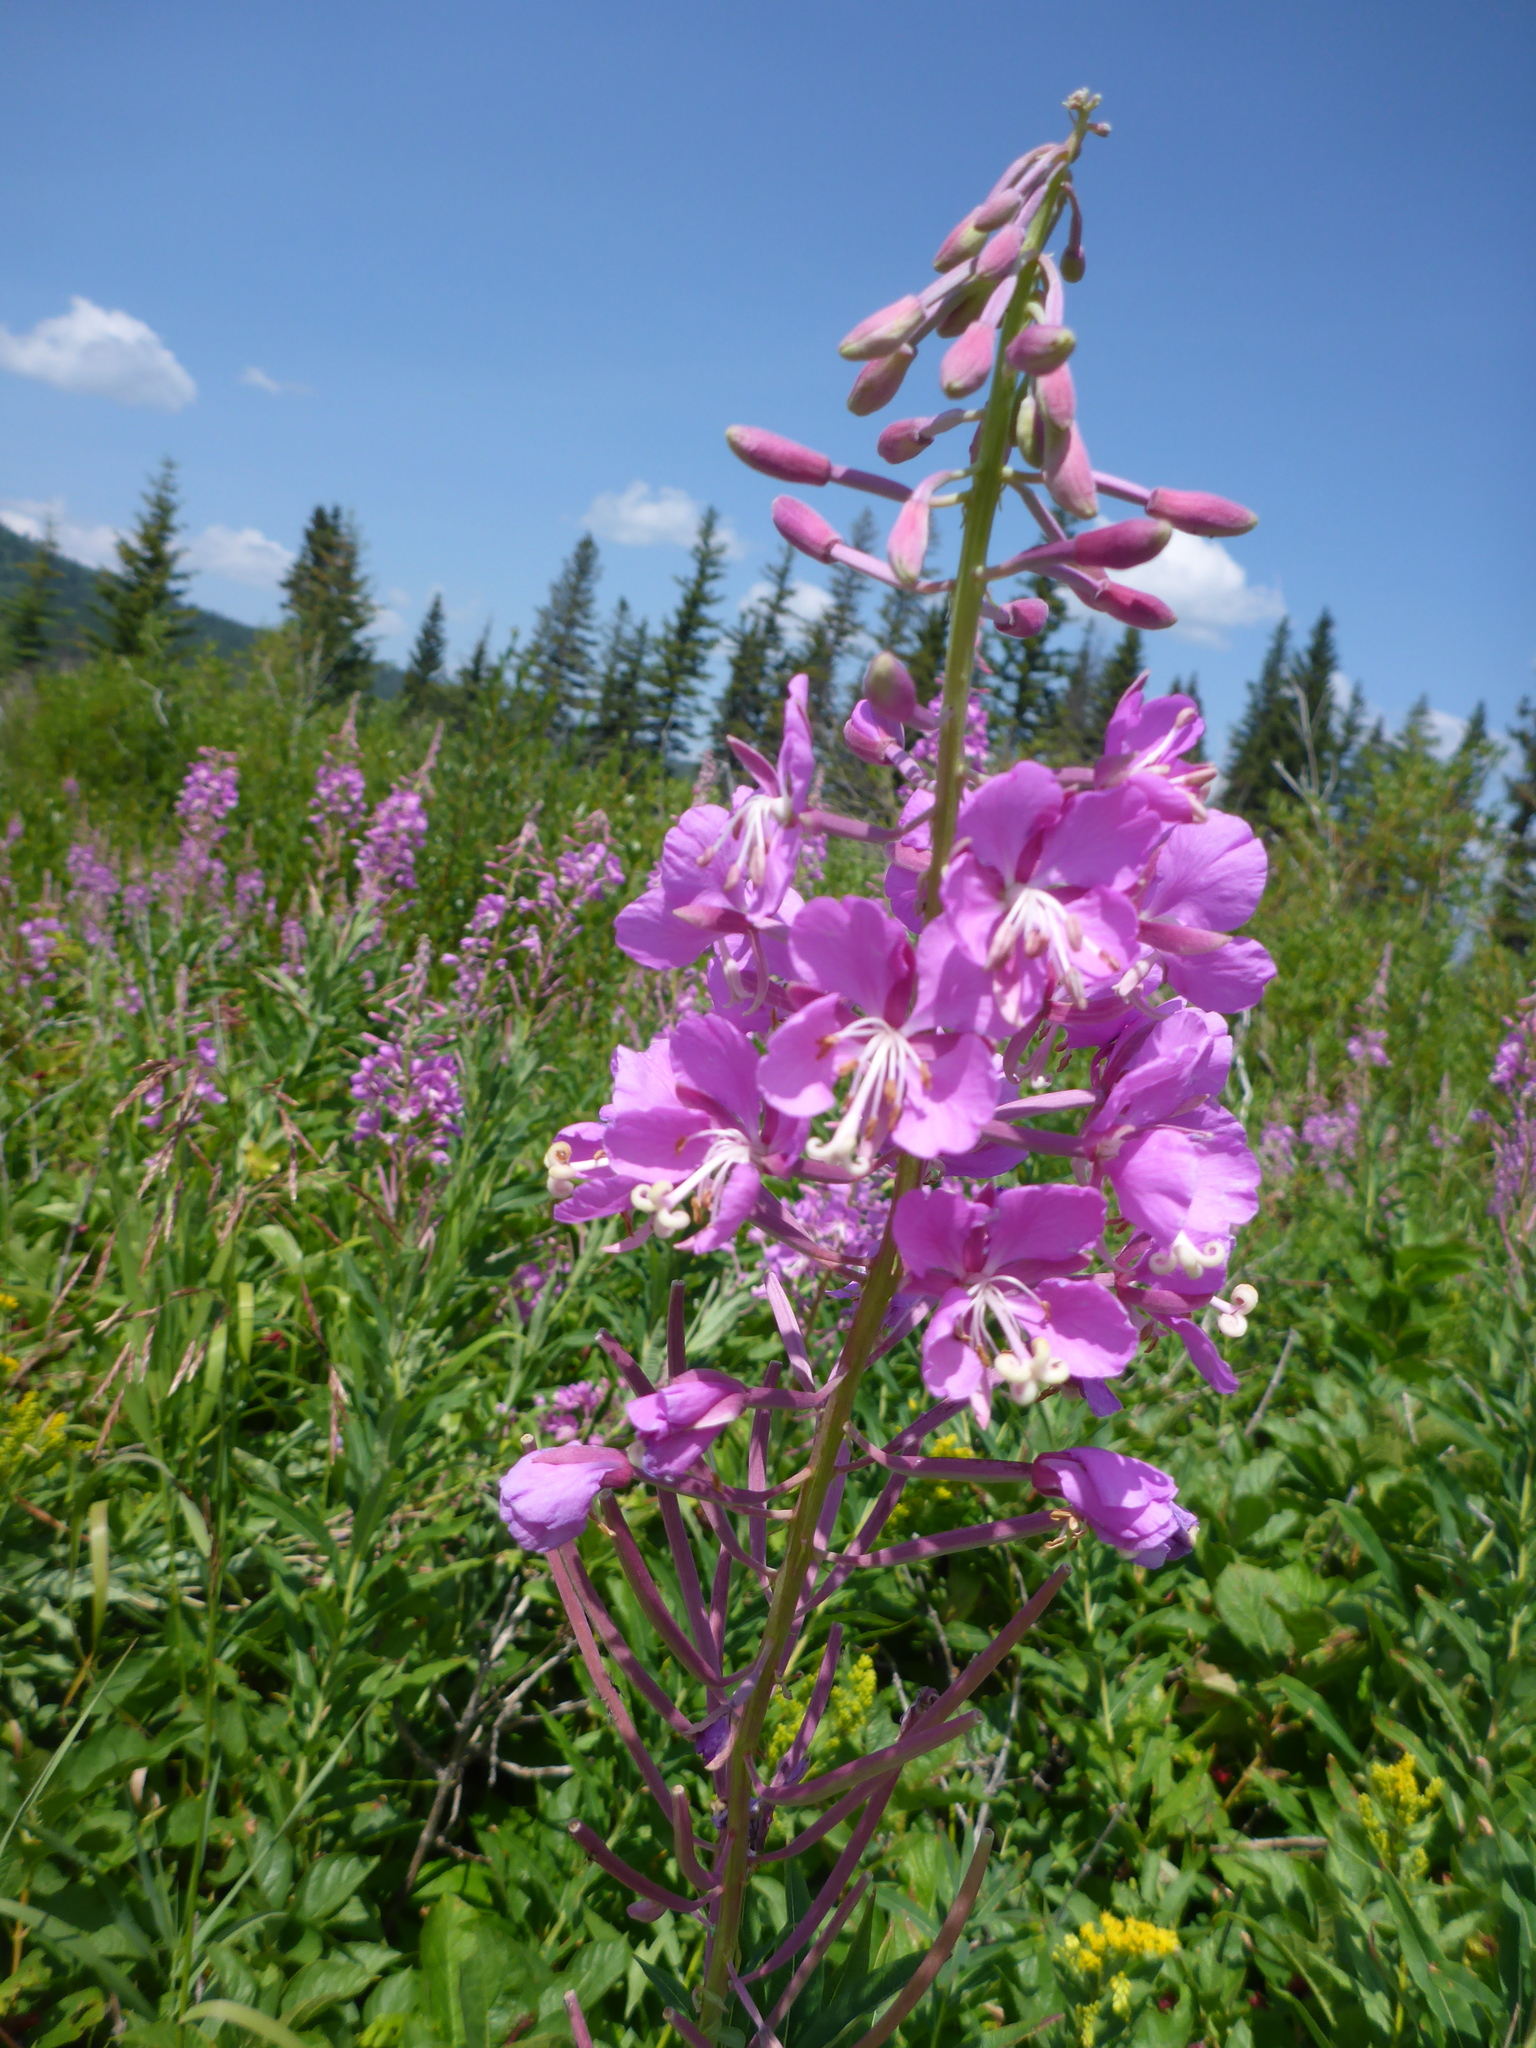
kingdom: Plantae
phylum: Tracheophyta
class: Magnoliopsida
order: Myrtales
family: Onagraceae
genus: Chamaenerion
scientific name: Chamaenerion angustifolium
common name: Fireweed
